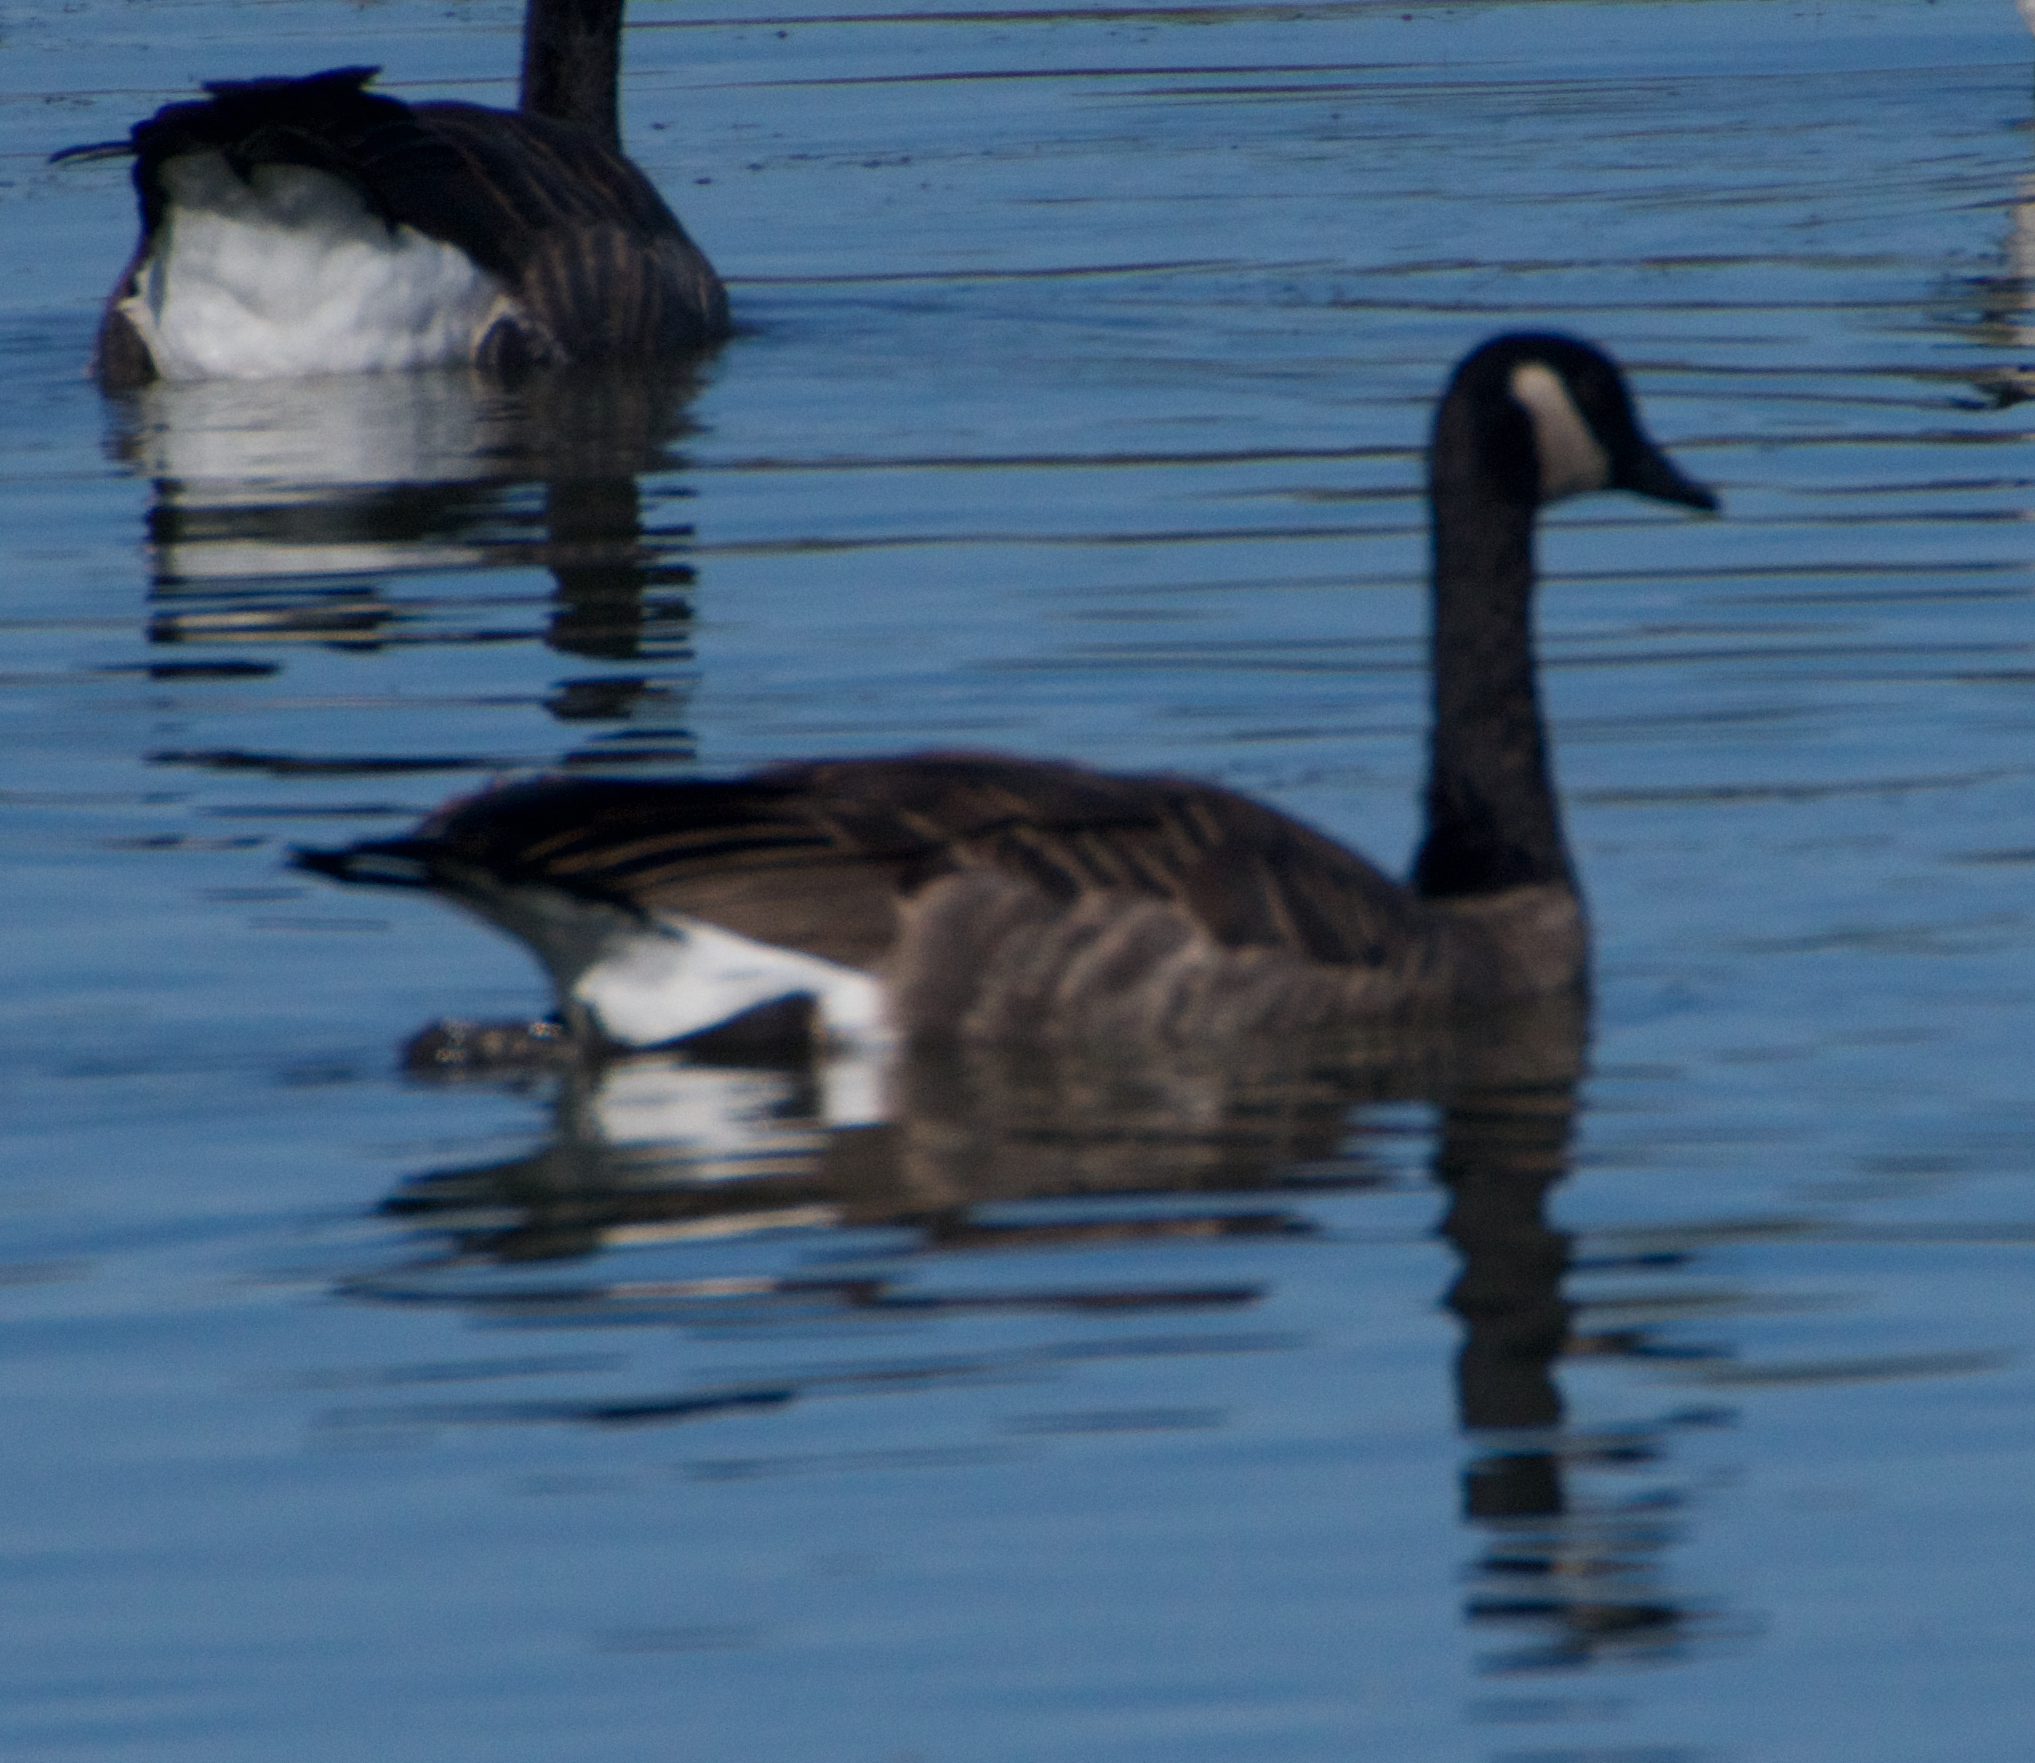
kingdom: Animalia
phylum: Chordata
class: Aves
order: Anseriformes
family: Anatidae
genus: Branta
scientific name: Branta canadensis
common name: Canada goose
